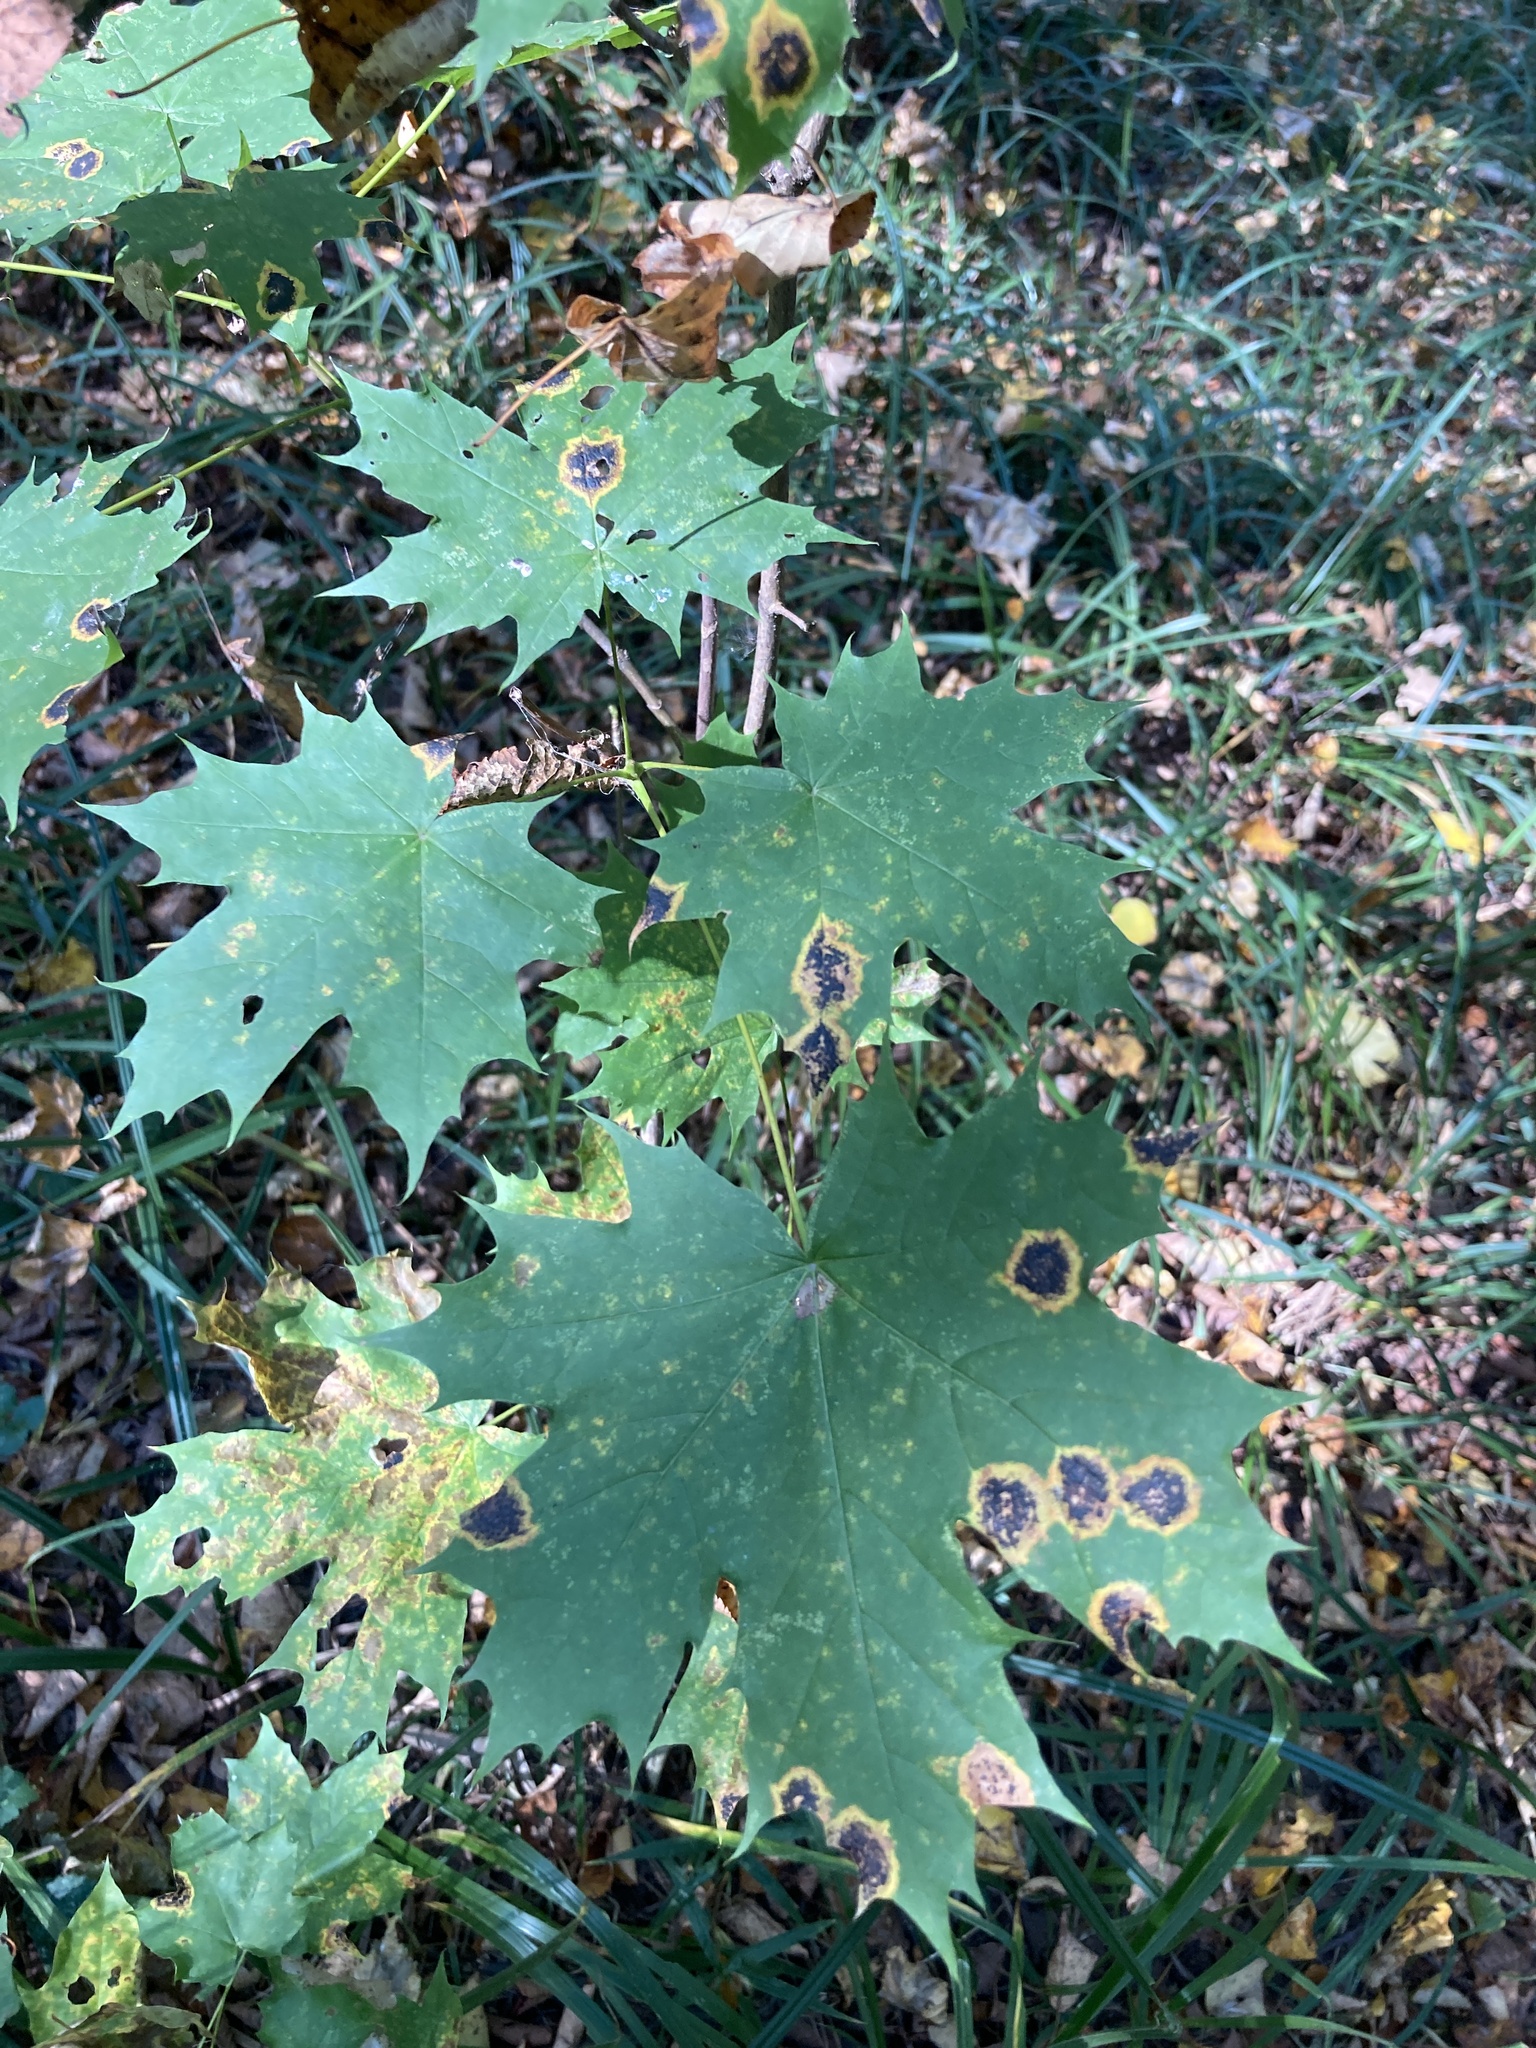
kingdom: Plantae
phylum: Tracheophyta
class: Magnoliopsida
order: Sapindales
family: Sapindaceae
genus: Acer
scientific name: Acer platanoides
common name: Norway maple
